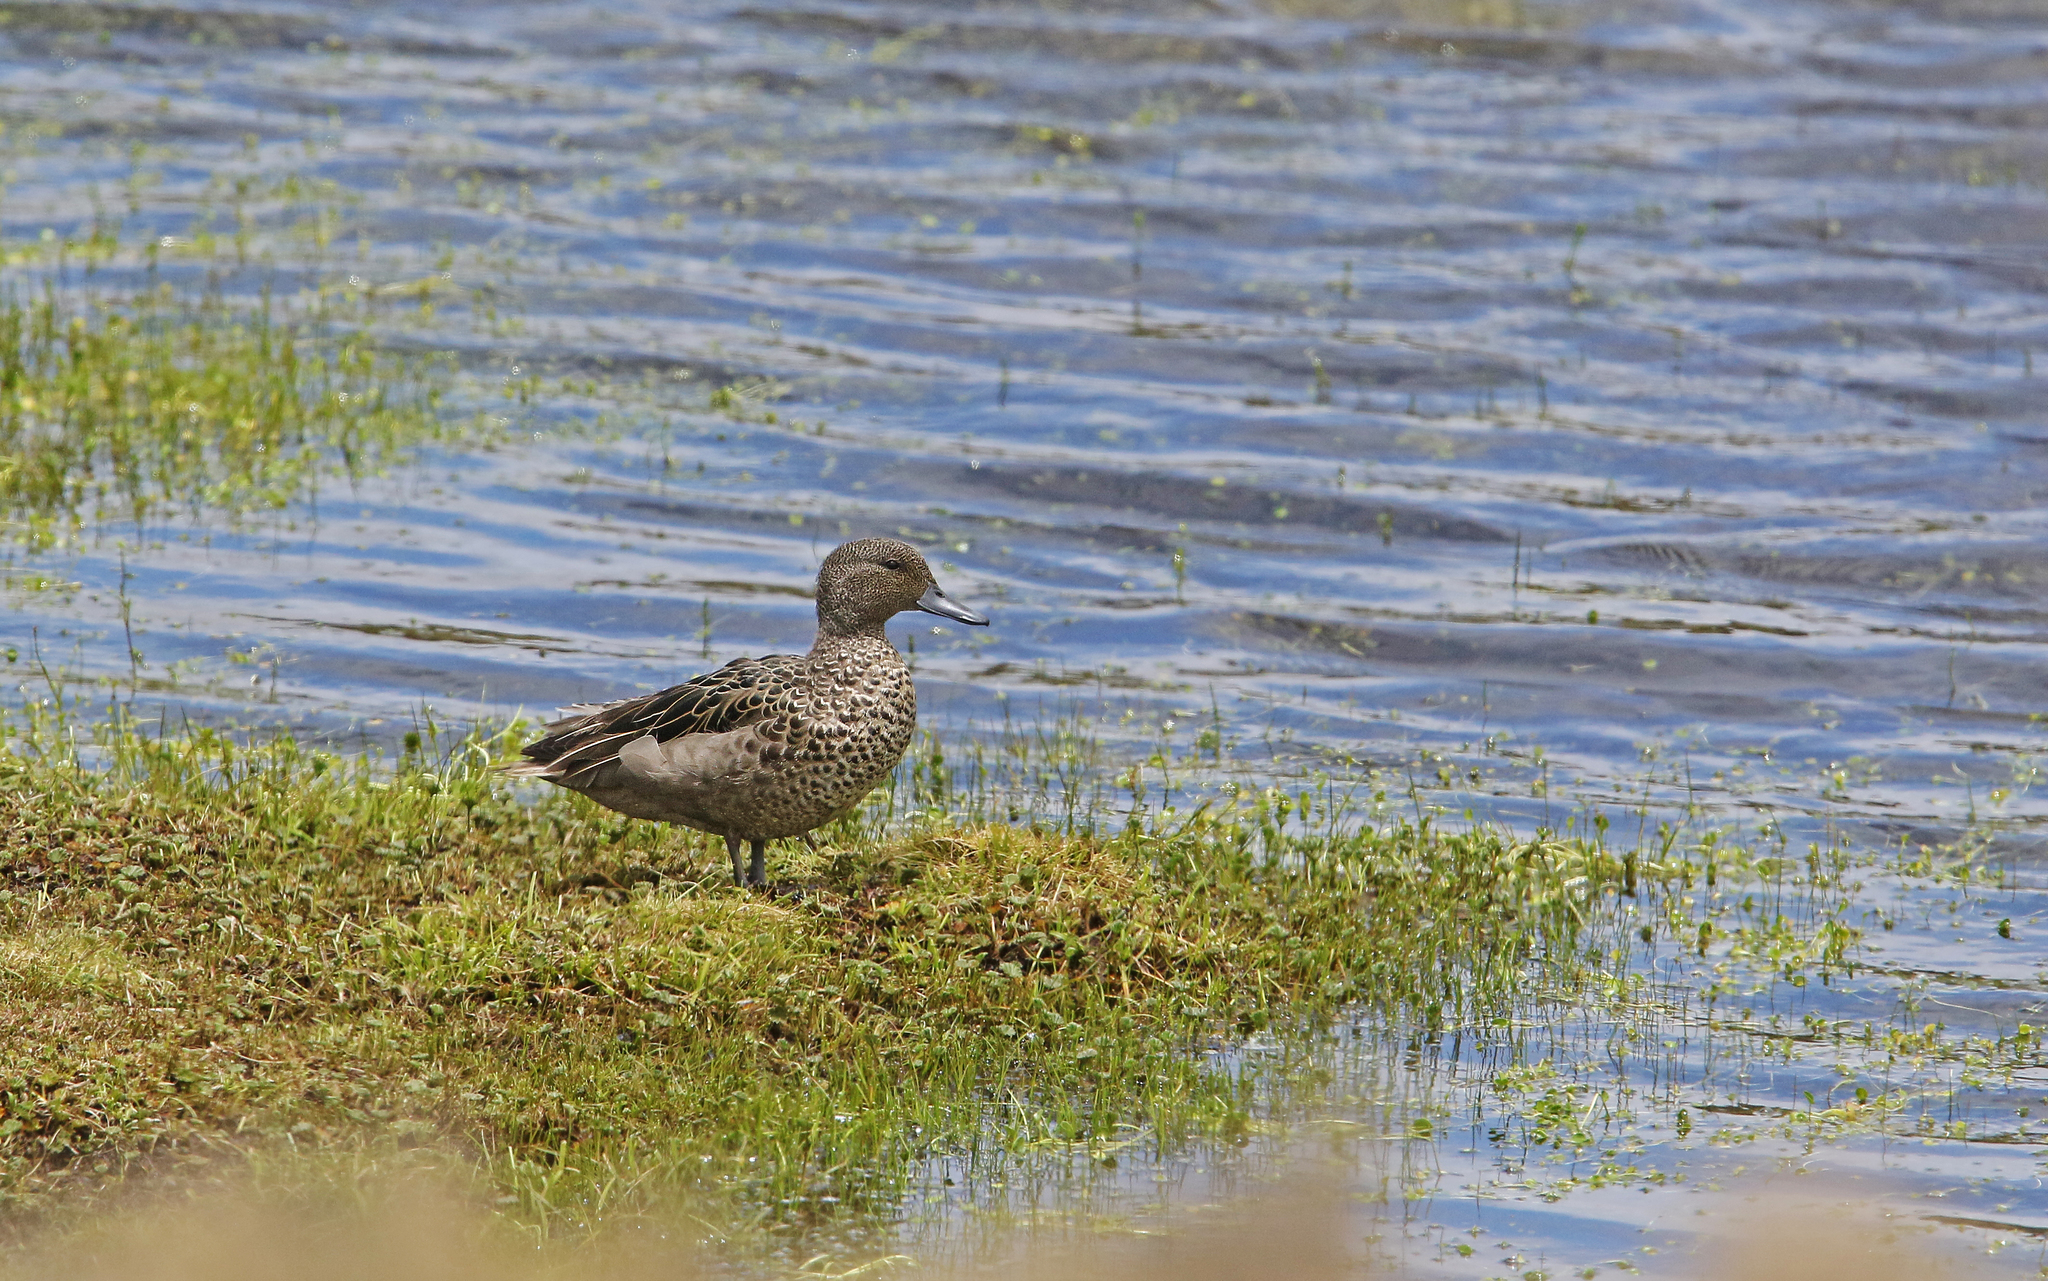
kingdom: Animalia
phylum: Chordata
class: Aves
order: Anseriformes
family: Anatidae
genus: Anas
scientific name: Anas andium
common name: Andean teal
